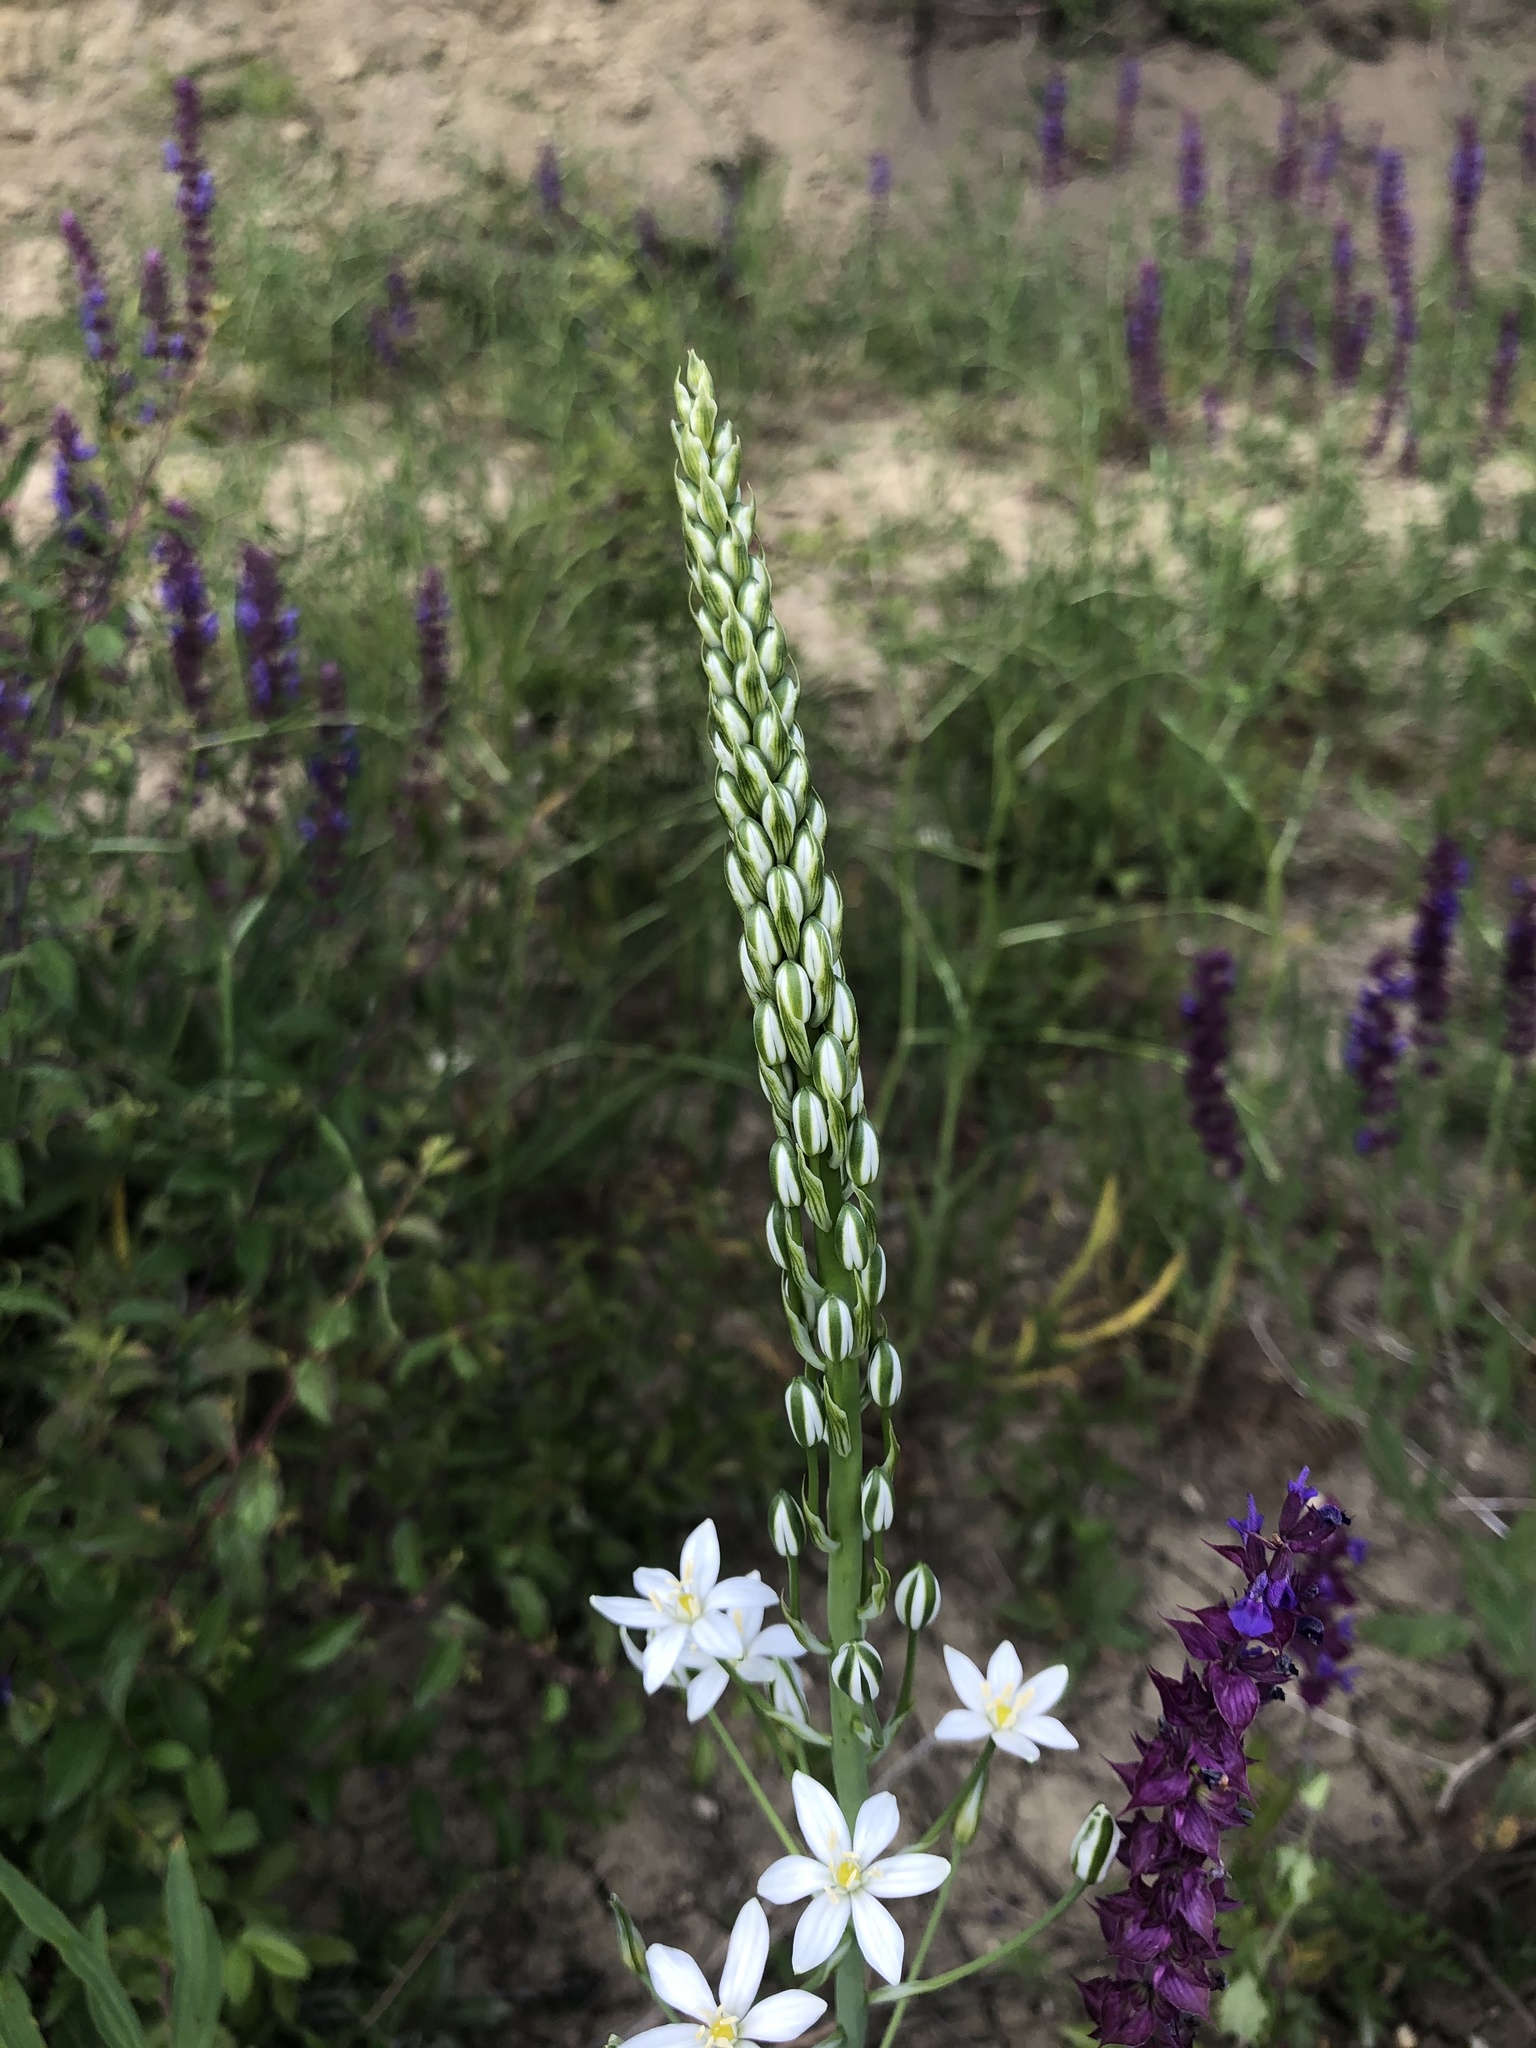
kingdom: Plantae
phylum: Tracheophyta
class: Liliopsida
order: Asparagales
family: Asparagaceae
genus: Ornithogalum
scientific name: Ornithogalum pyramidale
